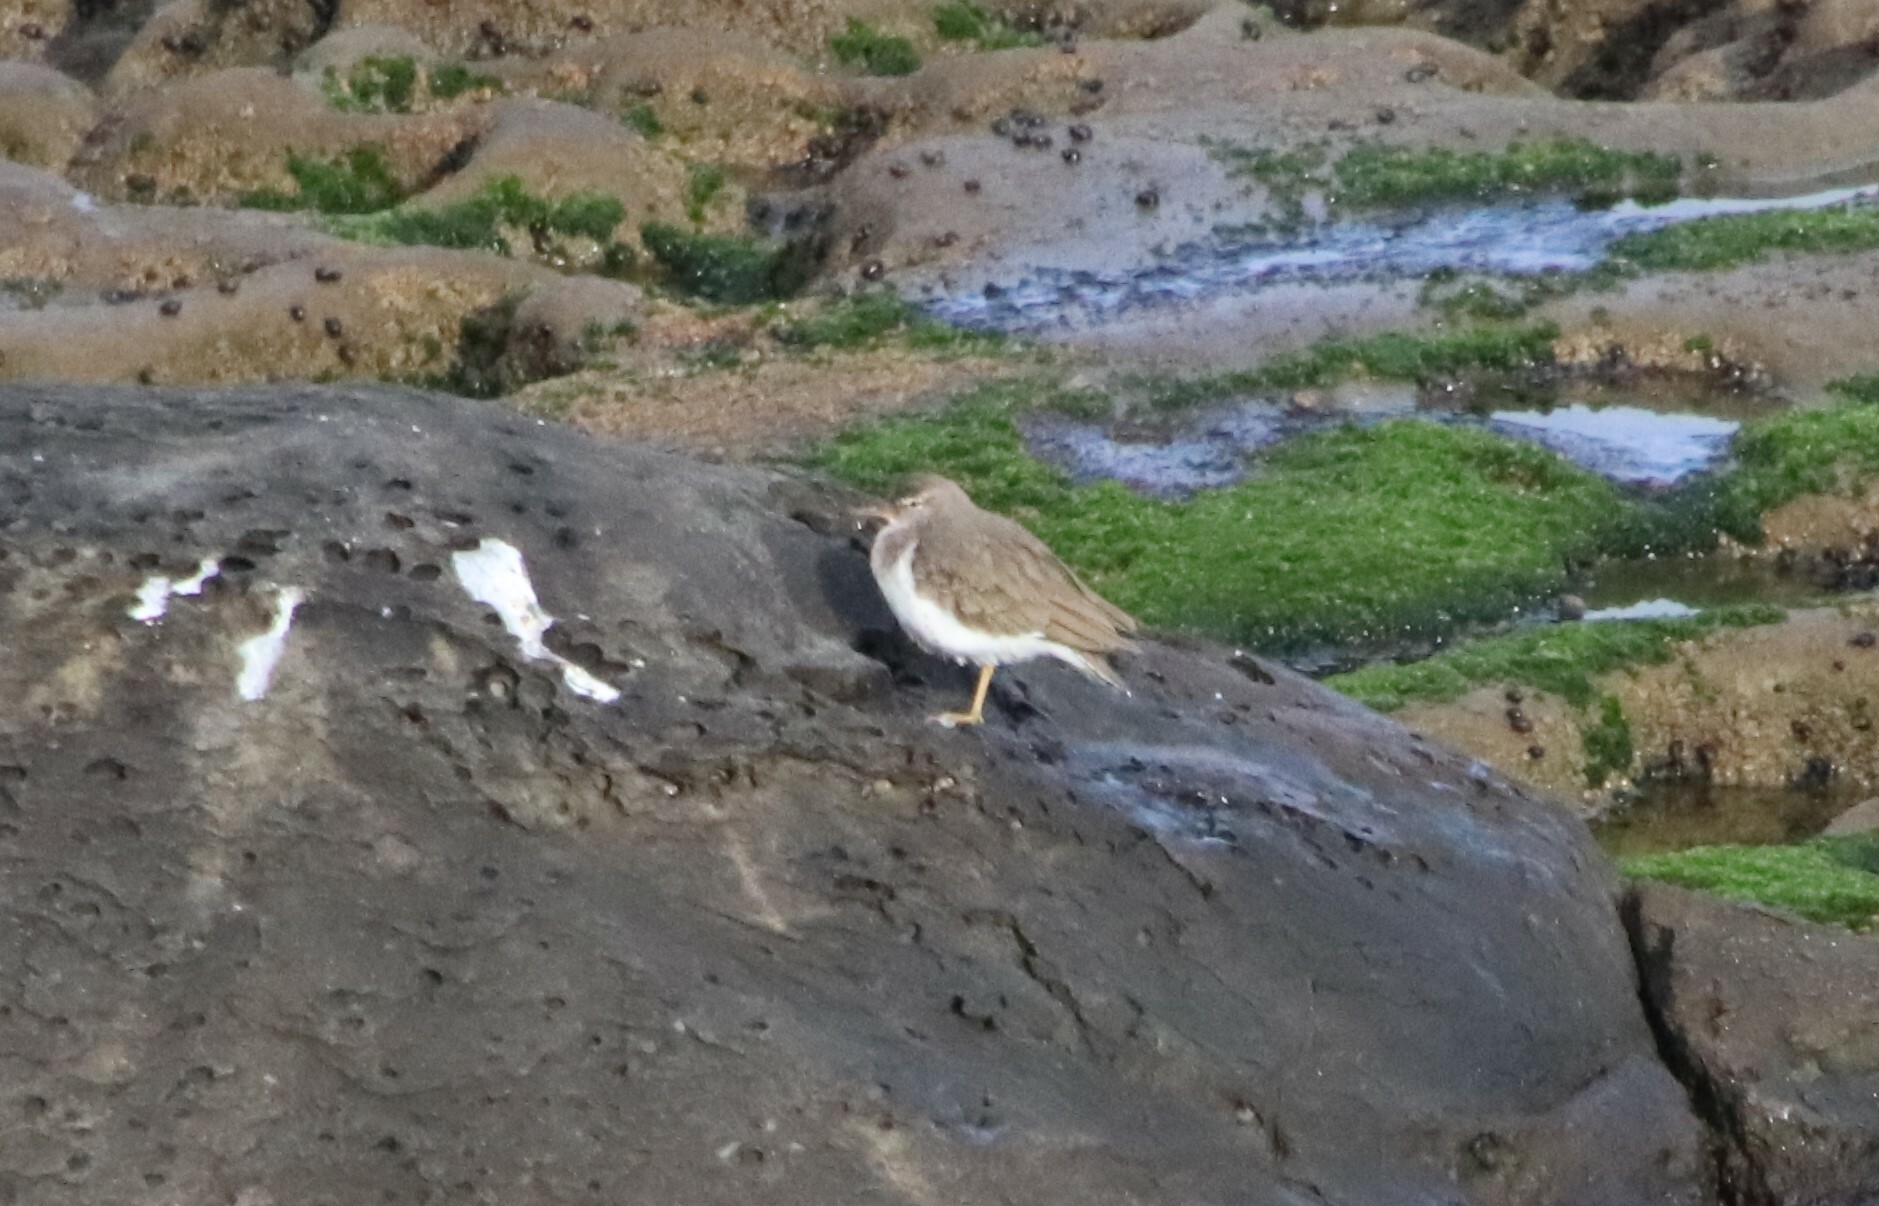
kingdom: Animalia
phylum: Chordata
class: Aves
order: Charadriiformes
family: Scolopacidae
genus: Actitis
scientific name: Actitis macularius
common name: Spotted sandpiper
